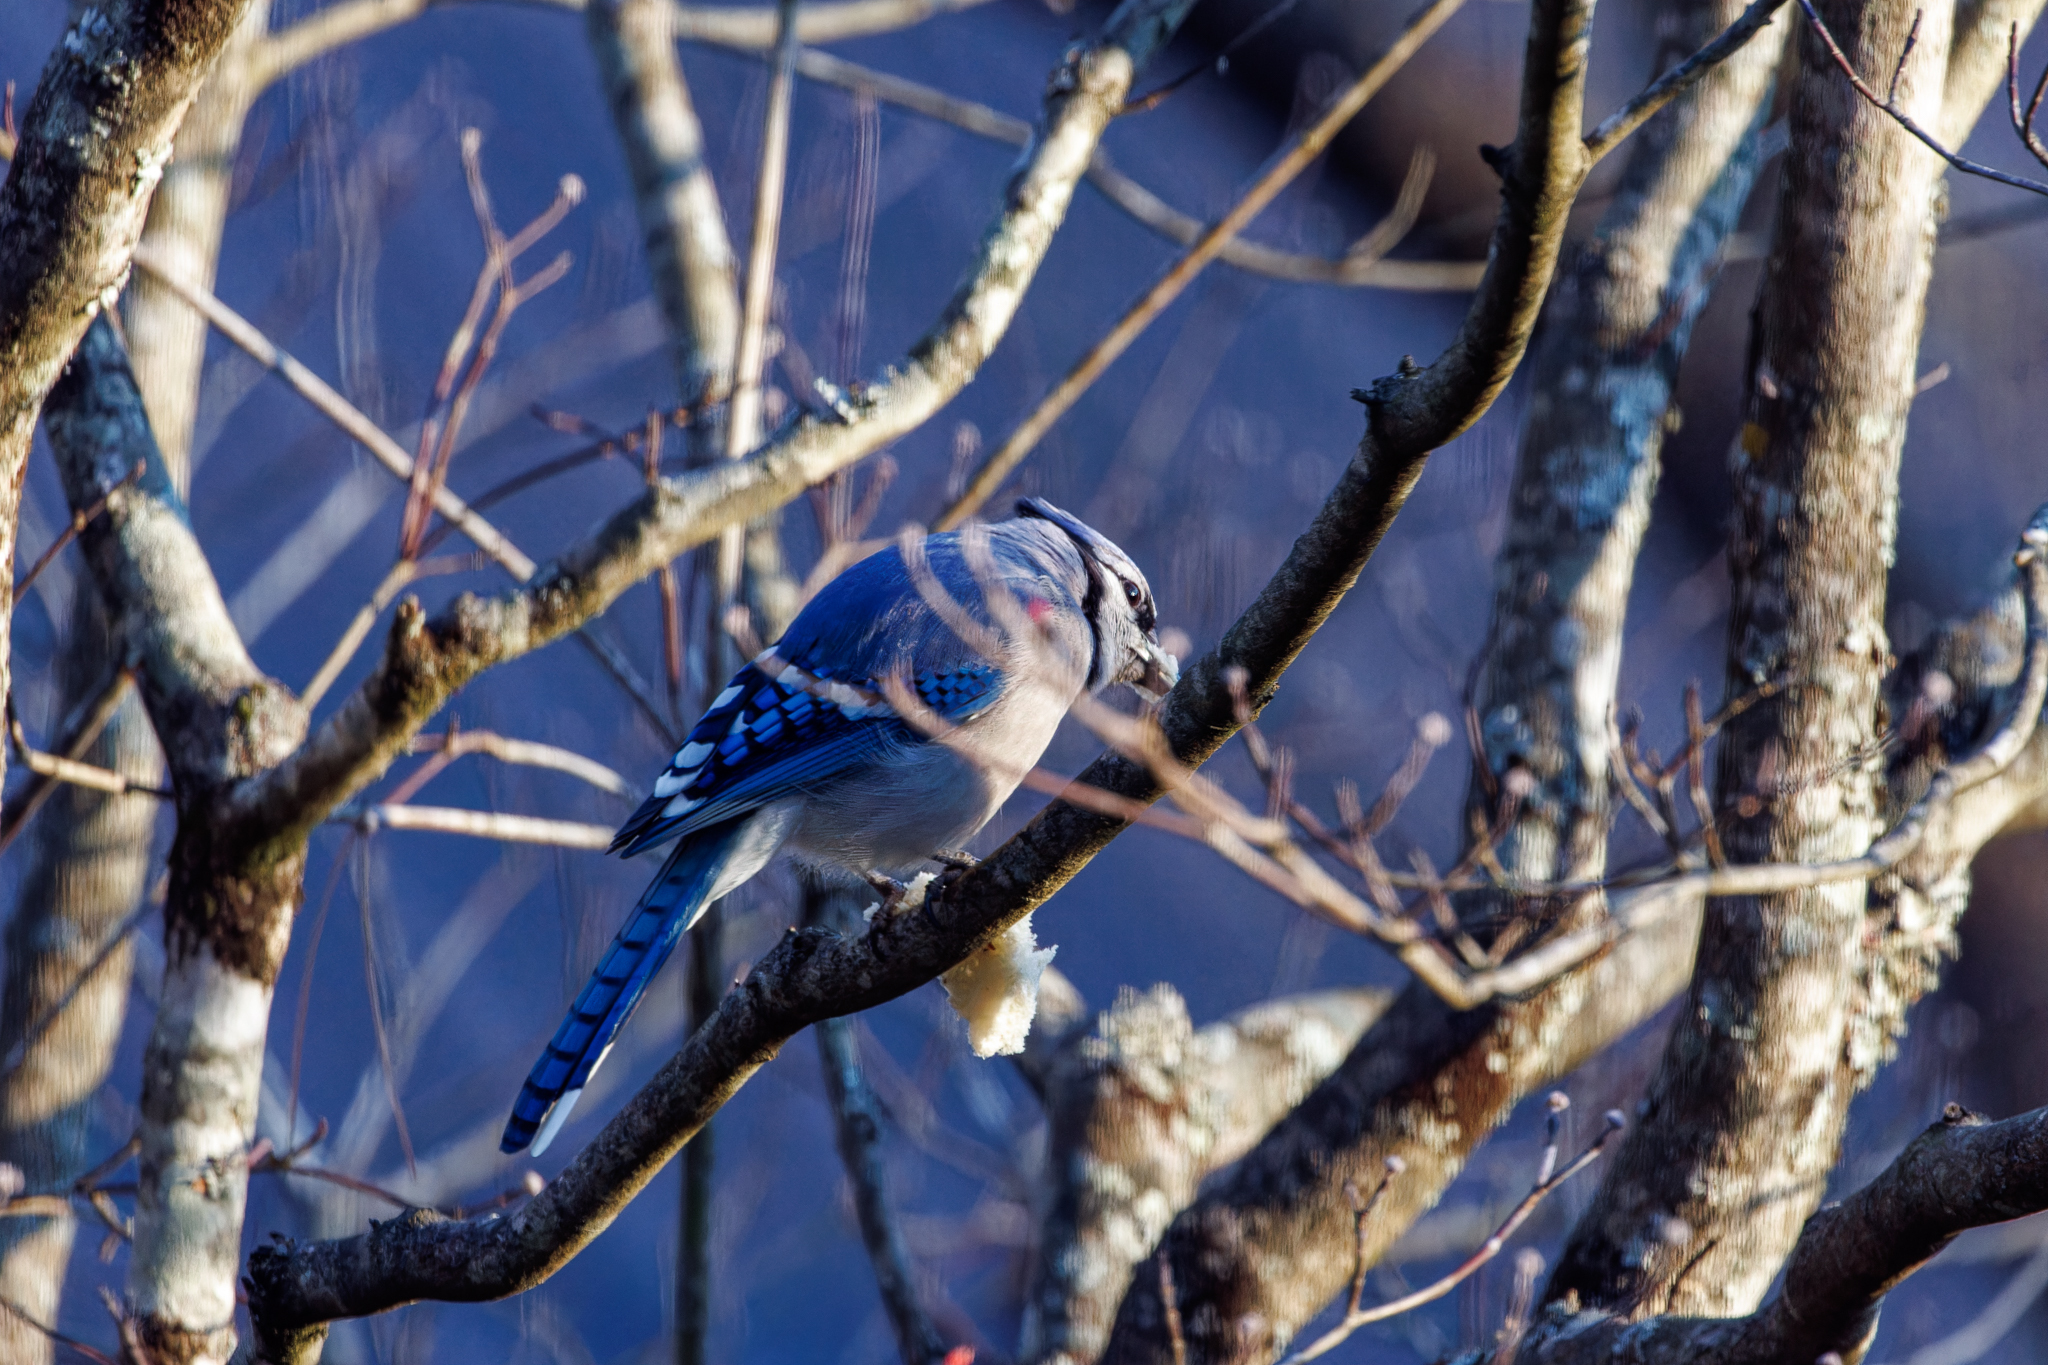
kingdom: Animalia
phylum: Chordata
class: Aves
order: Passeriformes
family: Corvidae
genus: Cyanocitta
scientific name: Cyanocitta cristata
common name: Blue jay
